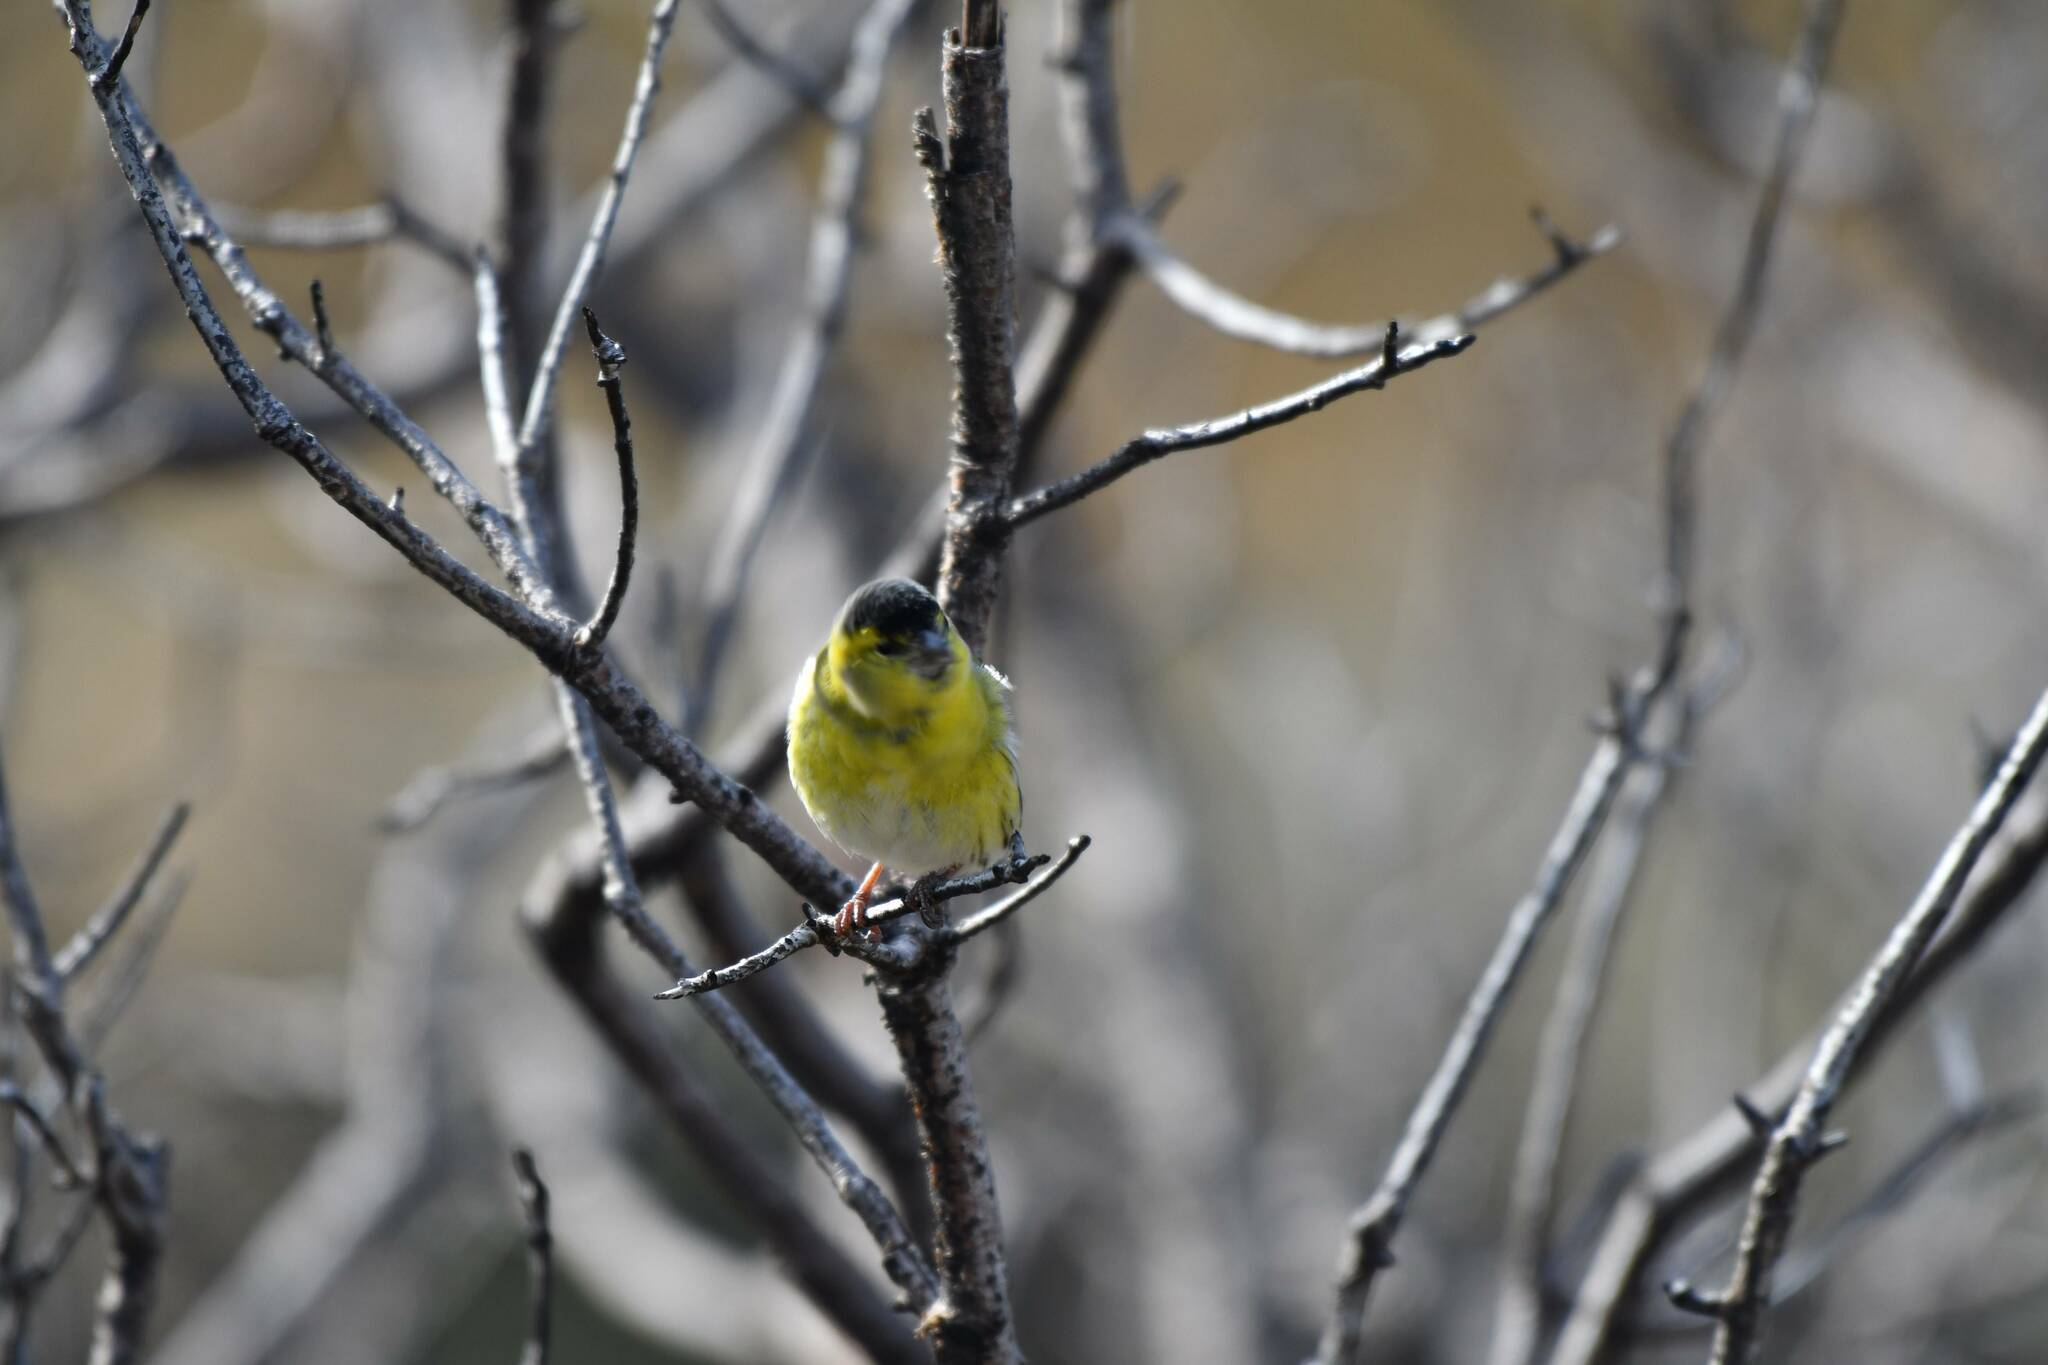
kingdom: Animalia
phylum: Chordata
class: Aves
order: Passeriformes
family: Fringillidae
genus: Spinus
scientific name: Spinus spinus
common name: Eurasian siskin
